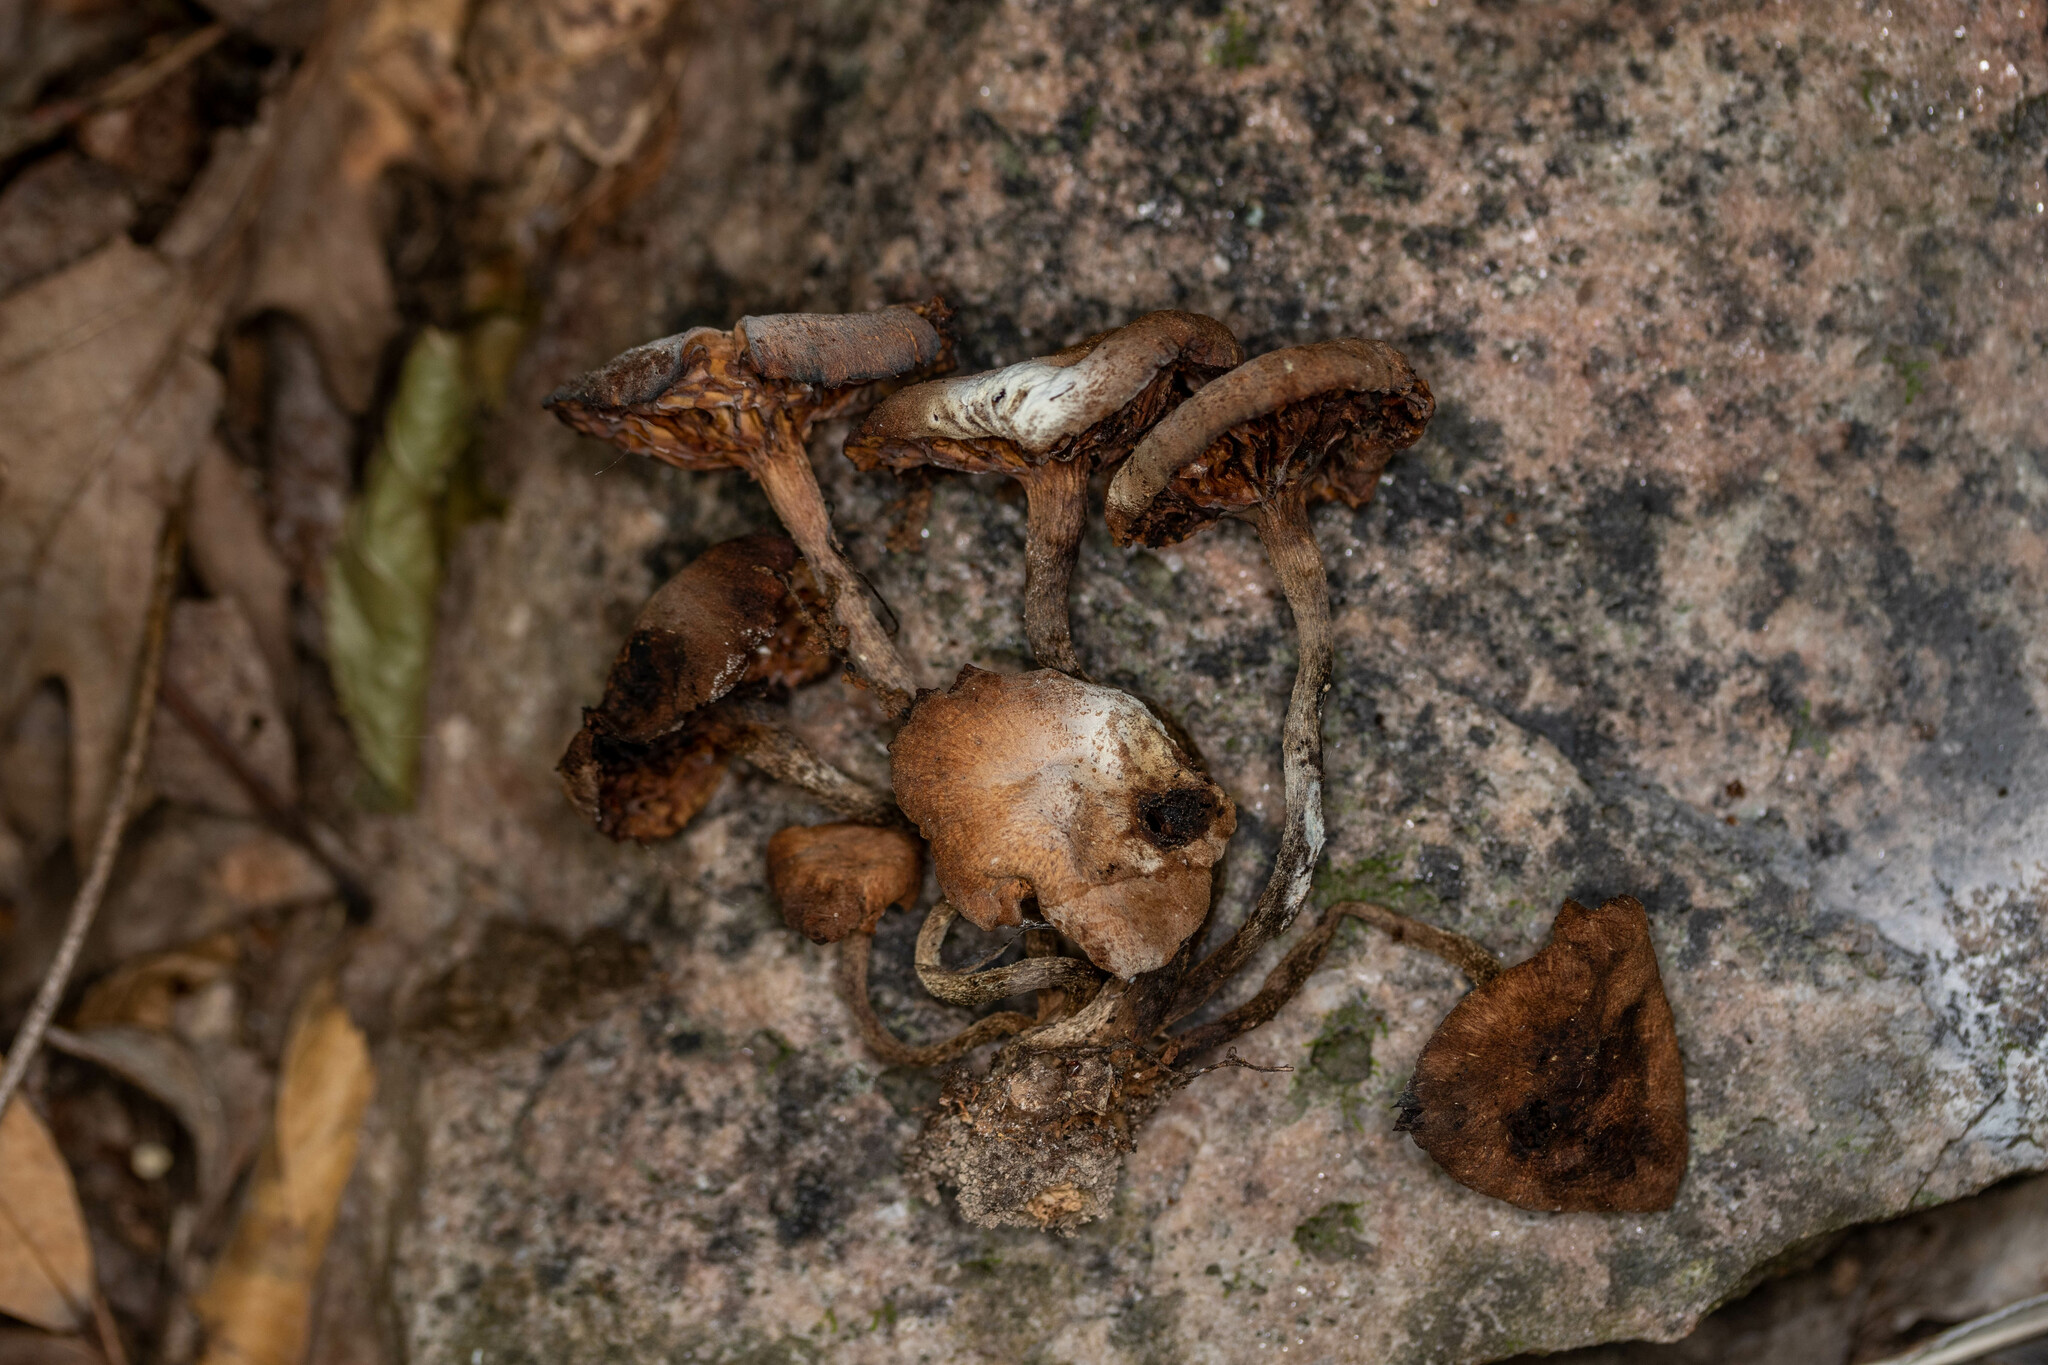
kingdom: Fungi
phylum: Basidiomycota
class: Agaricomycetes
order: Agaricales
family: Physalacriaceae
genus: Desarmillaria
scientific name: Desarmillaria caespitosa
